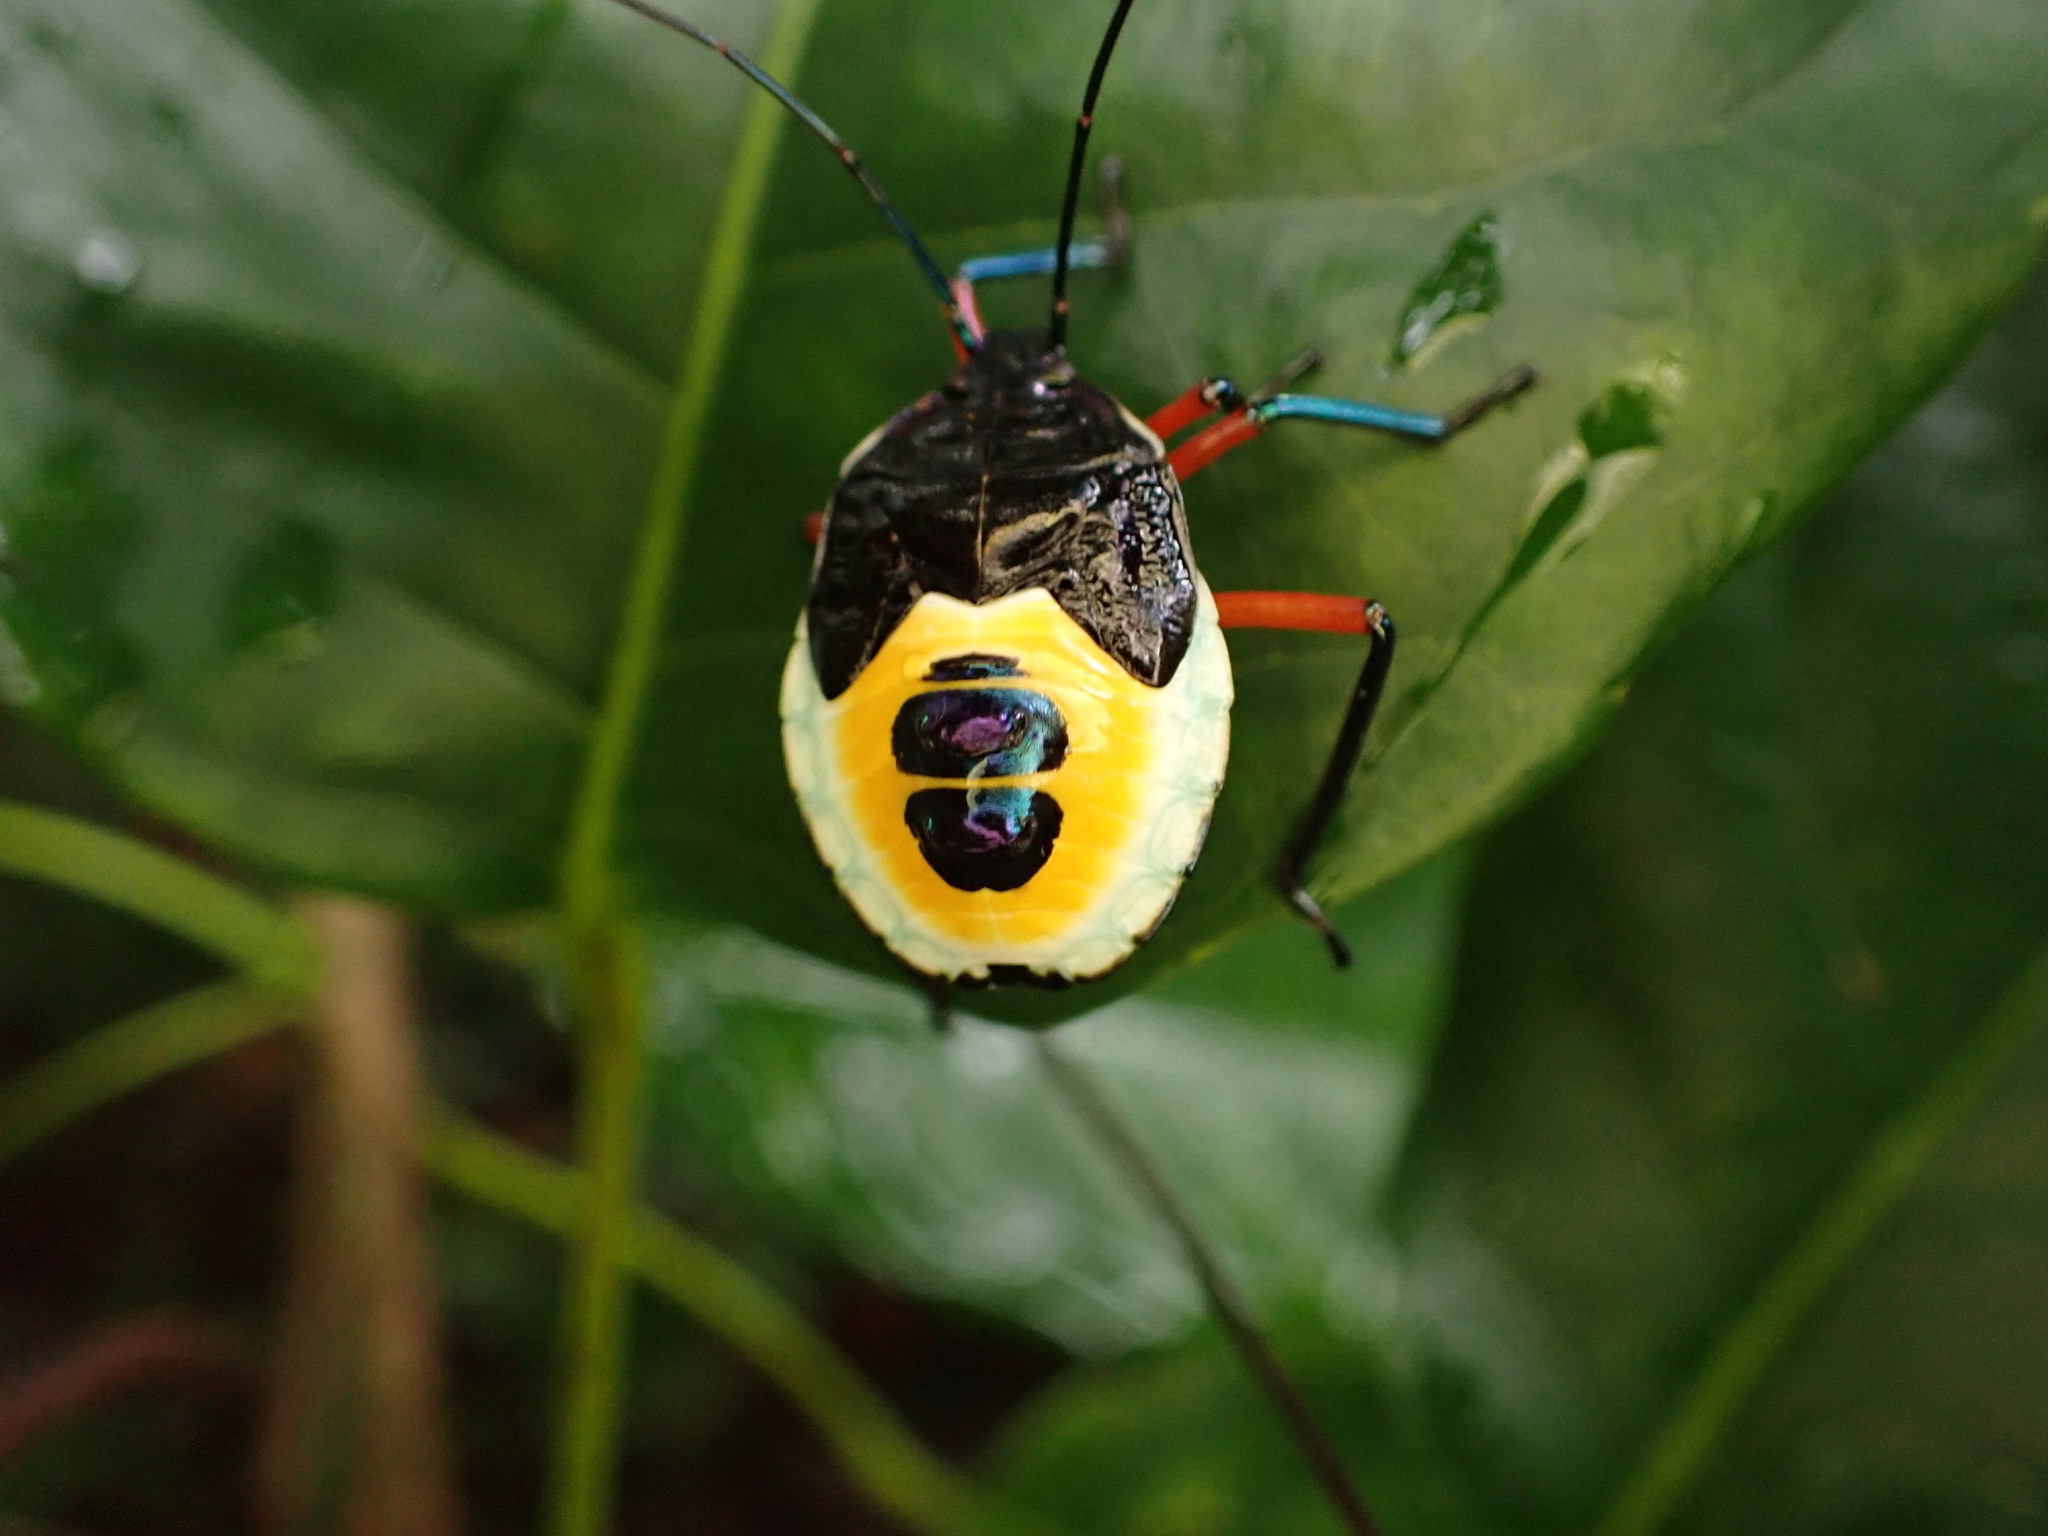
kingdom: Animalia
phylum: Arthropoda
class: Insecta
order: Hemiptera
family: Pentatomidae
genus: Catacanthus
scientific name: Catacanthus viridicatus
